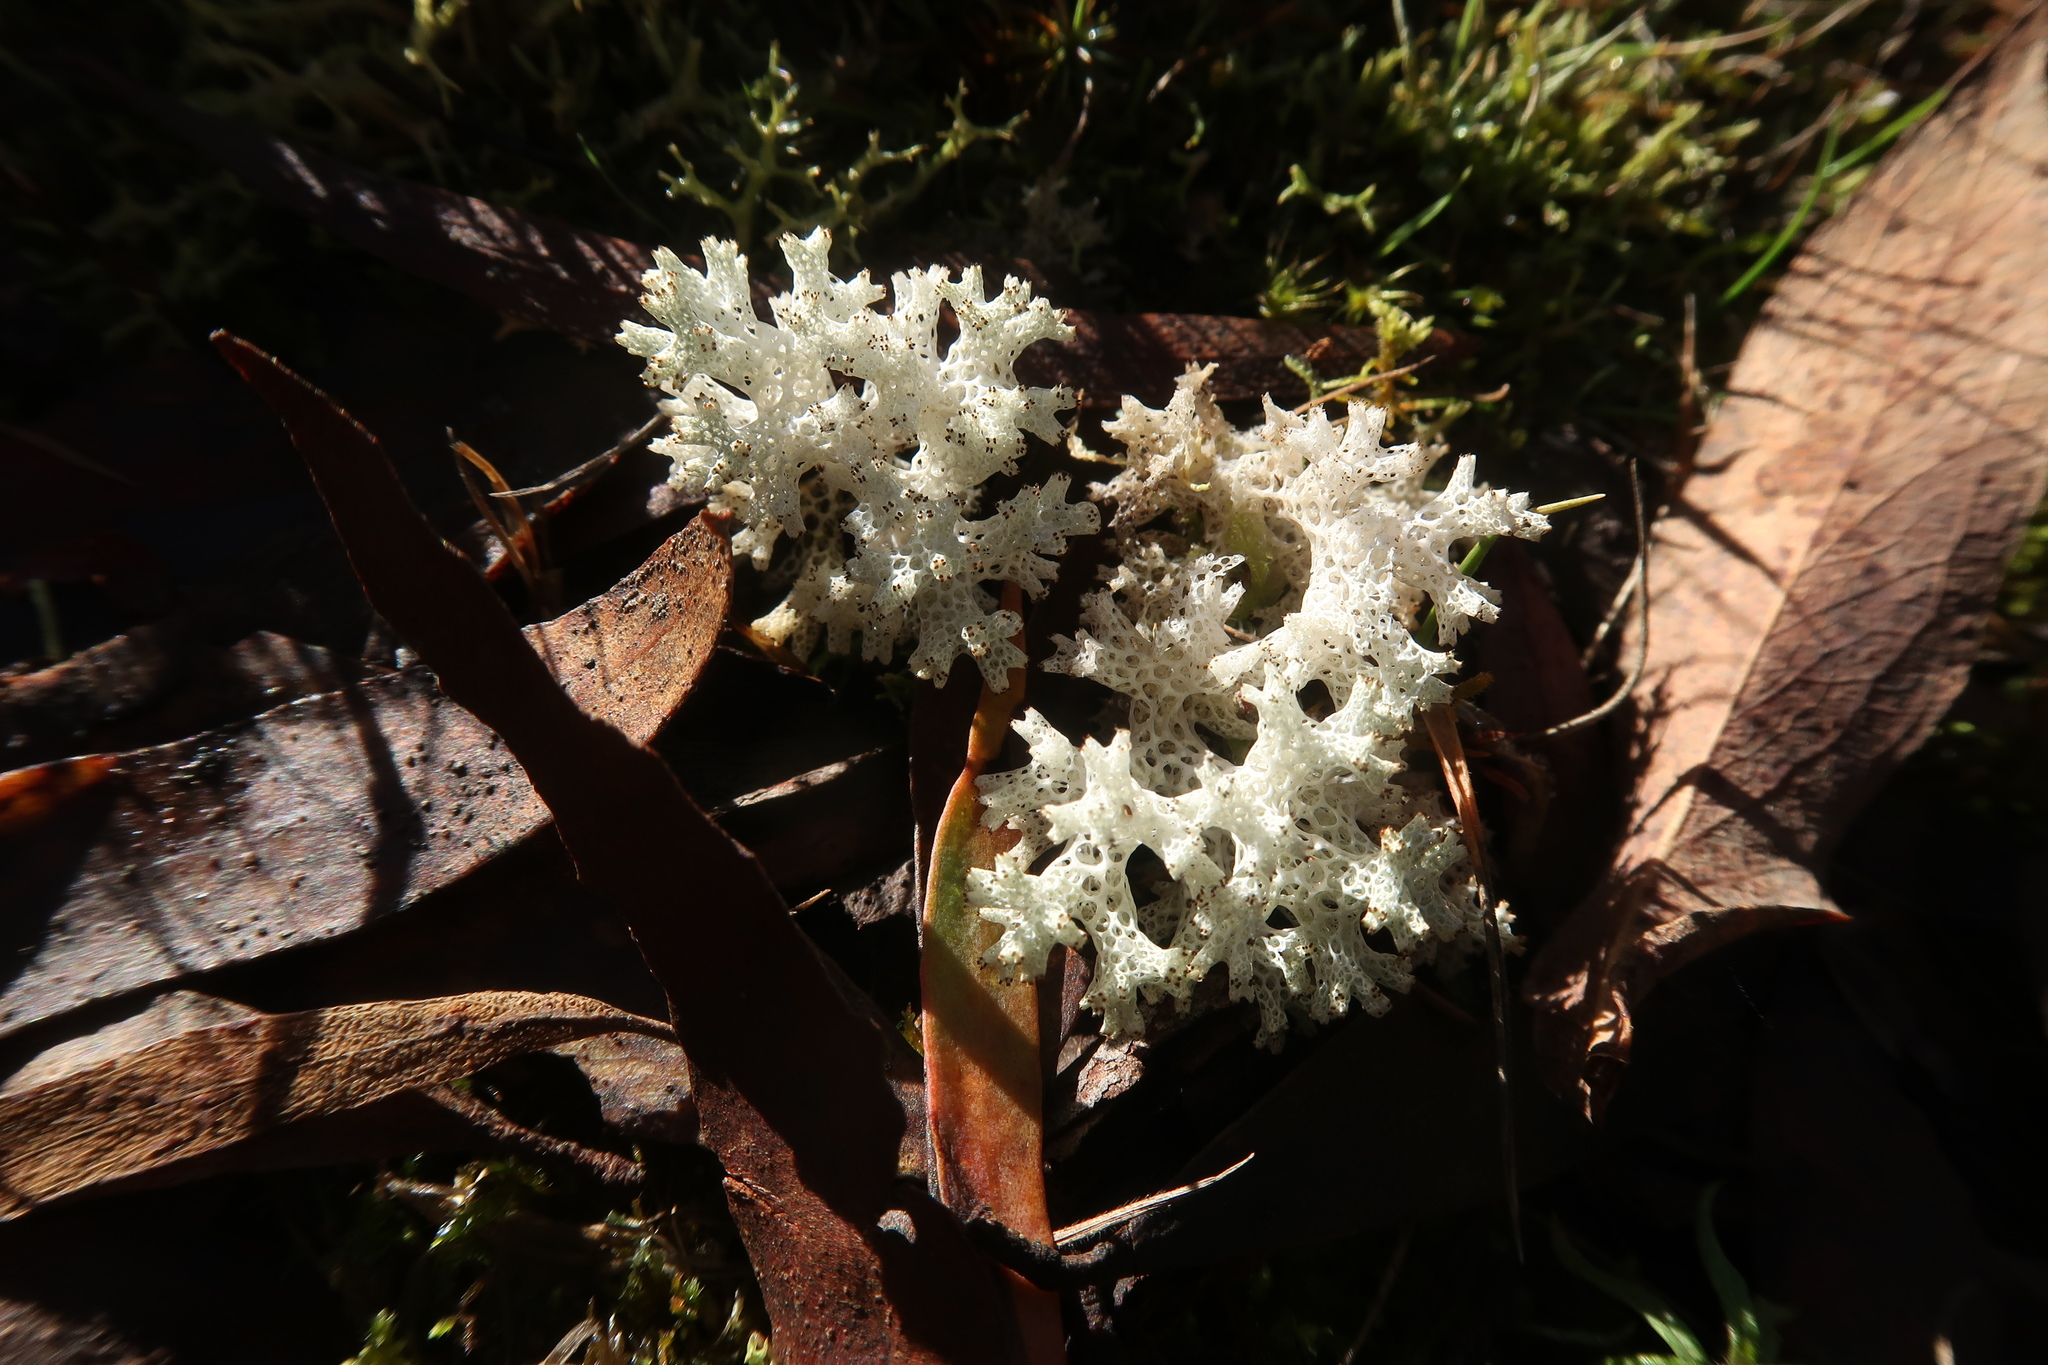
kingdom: Fungi
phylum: Ascomycota
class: Lecanoromycetes
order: Lecanorales
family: Cladoniaceae
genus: Pulchrocladia
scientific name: Pulchrocladia retipora
